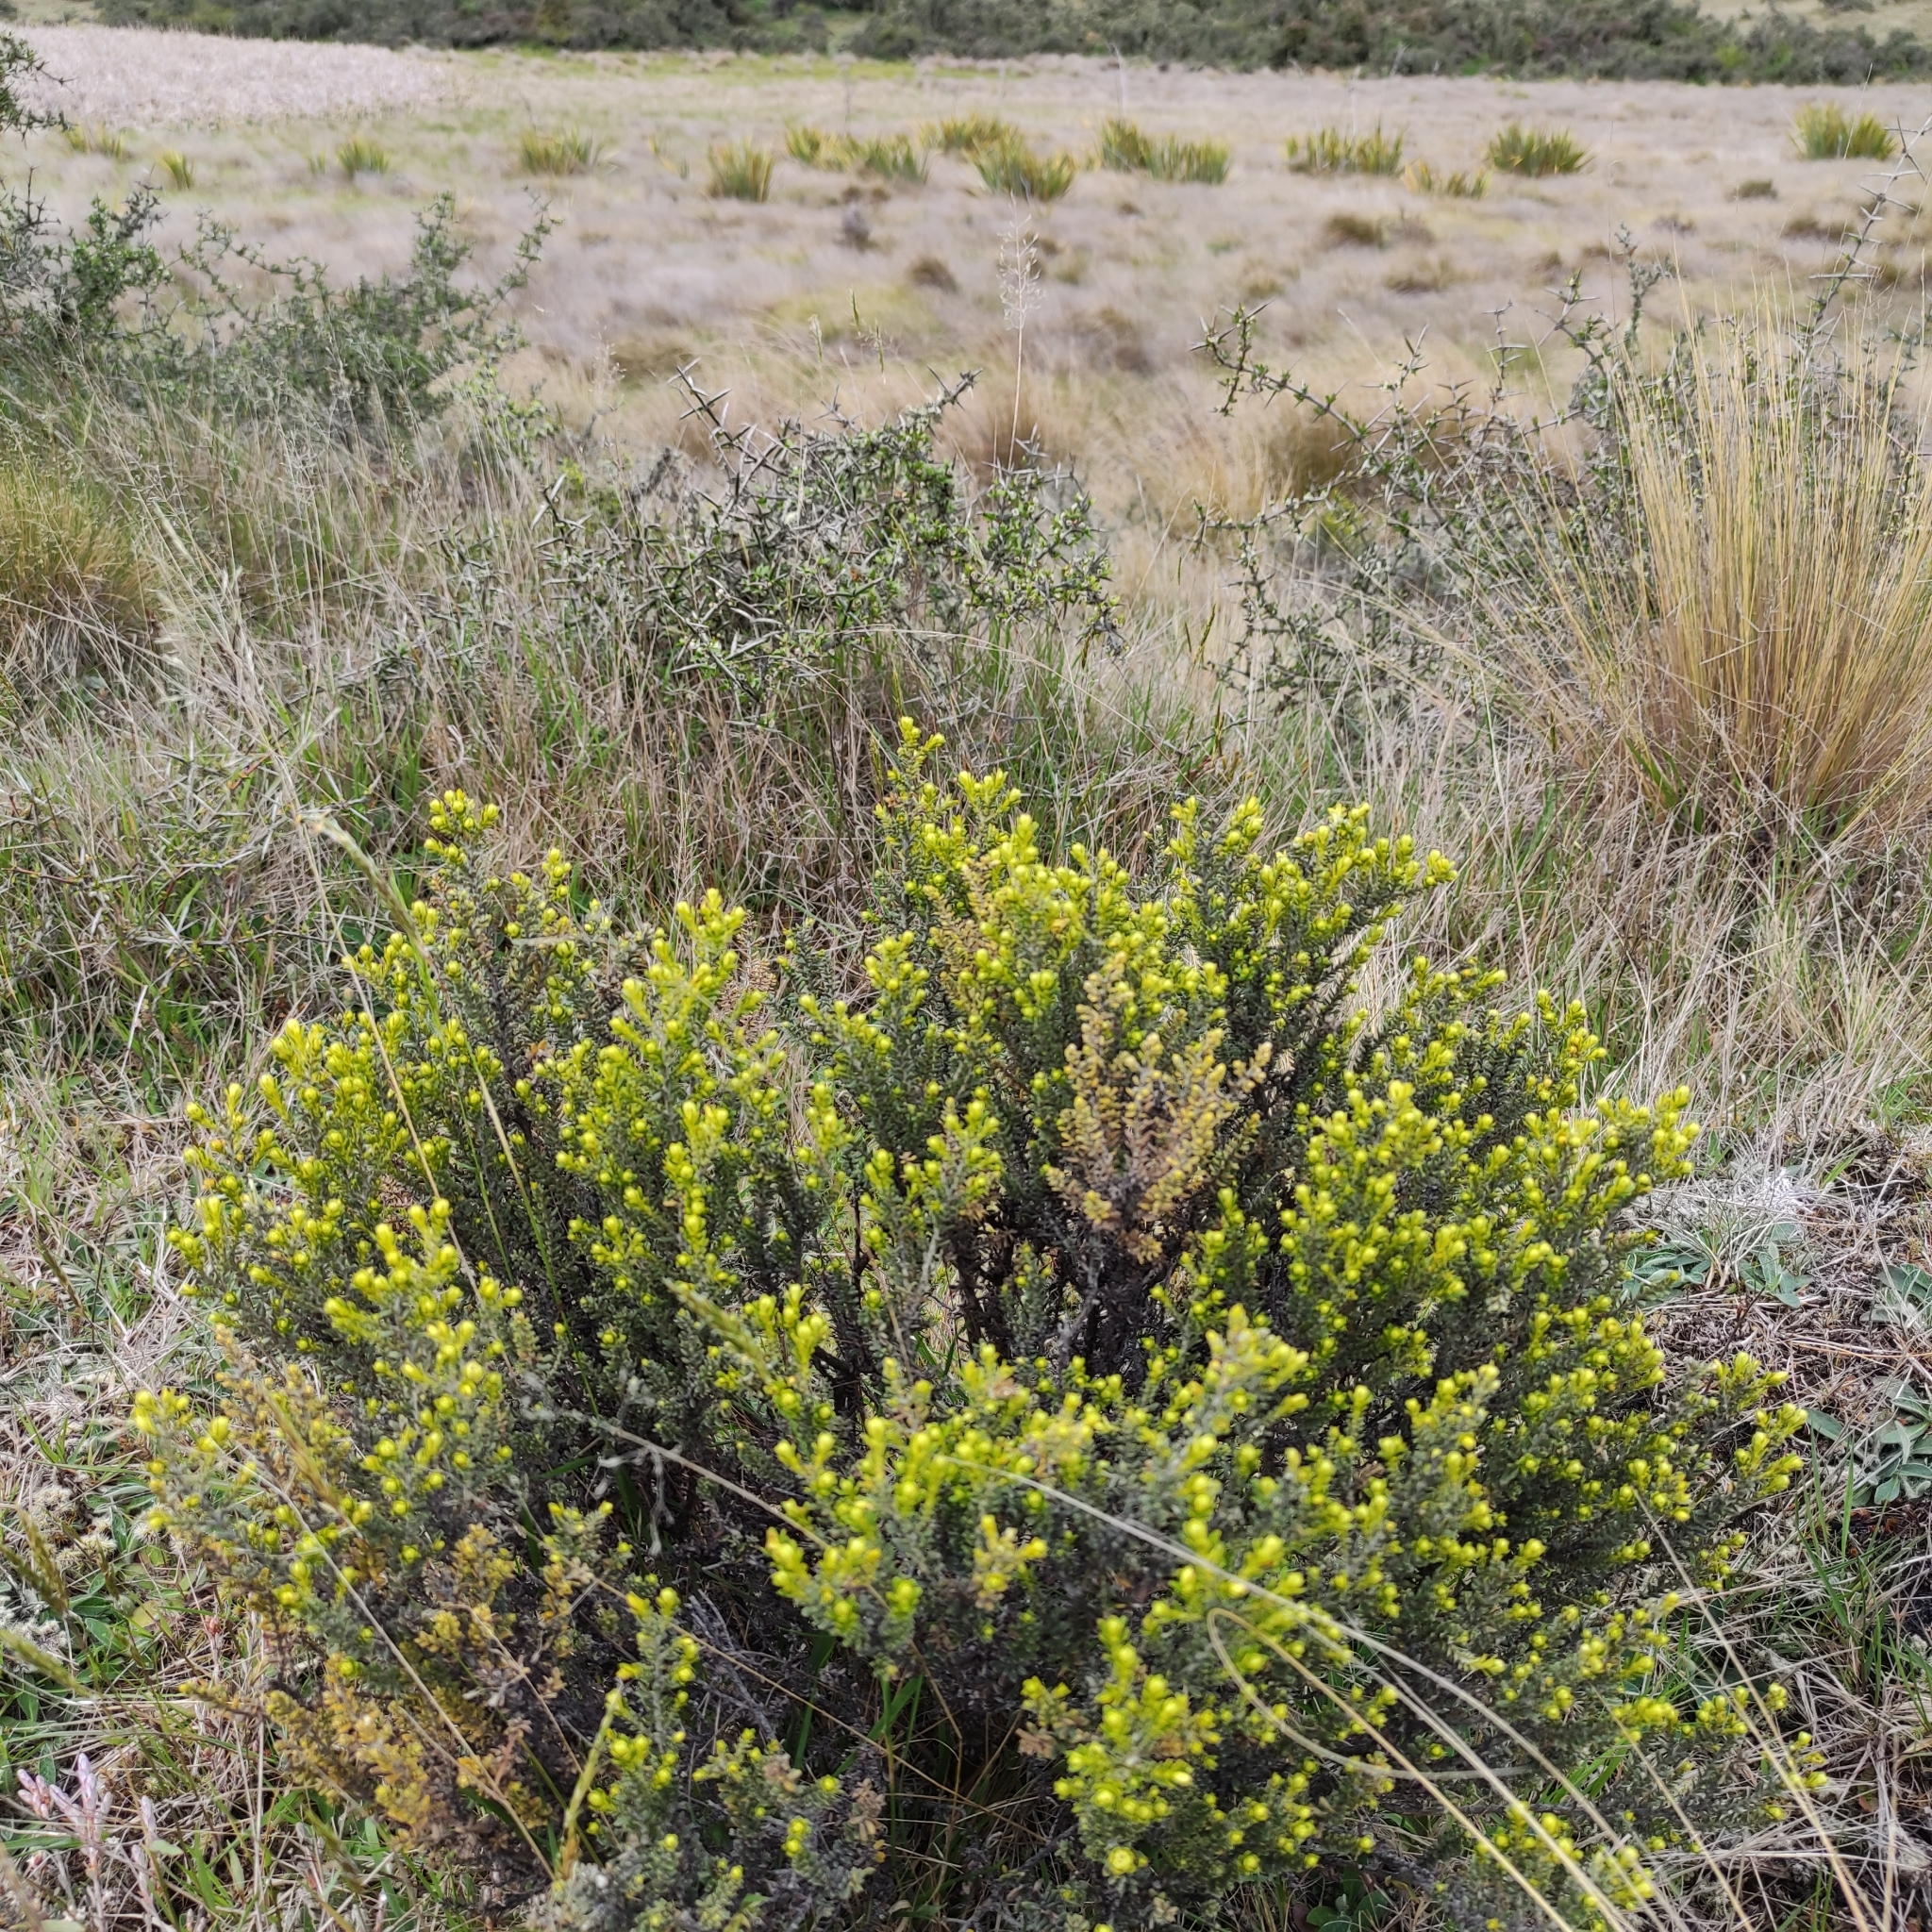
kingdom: Plantae
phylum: Tracheophyta
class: Magnoliopsida
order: Asterales
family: Asteraceae
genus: Ozothamnus
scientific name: Ozothamnus leptophyllus
